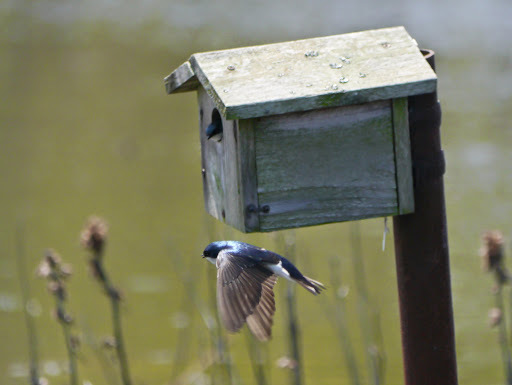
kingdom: Animalia
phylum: Chordata
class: Aves
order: Passeriformes
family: Hirundinidae
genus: Tachycineta
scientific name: Tachycineta bicolor
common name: Tree swallow
